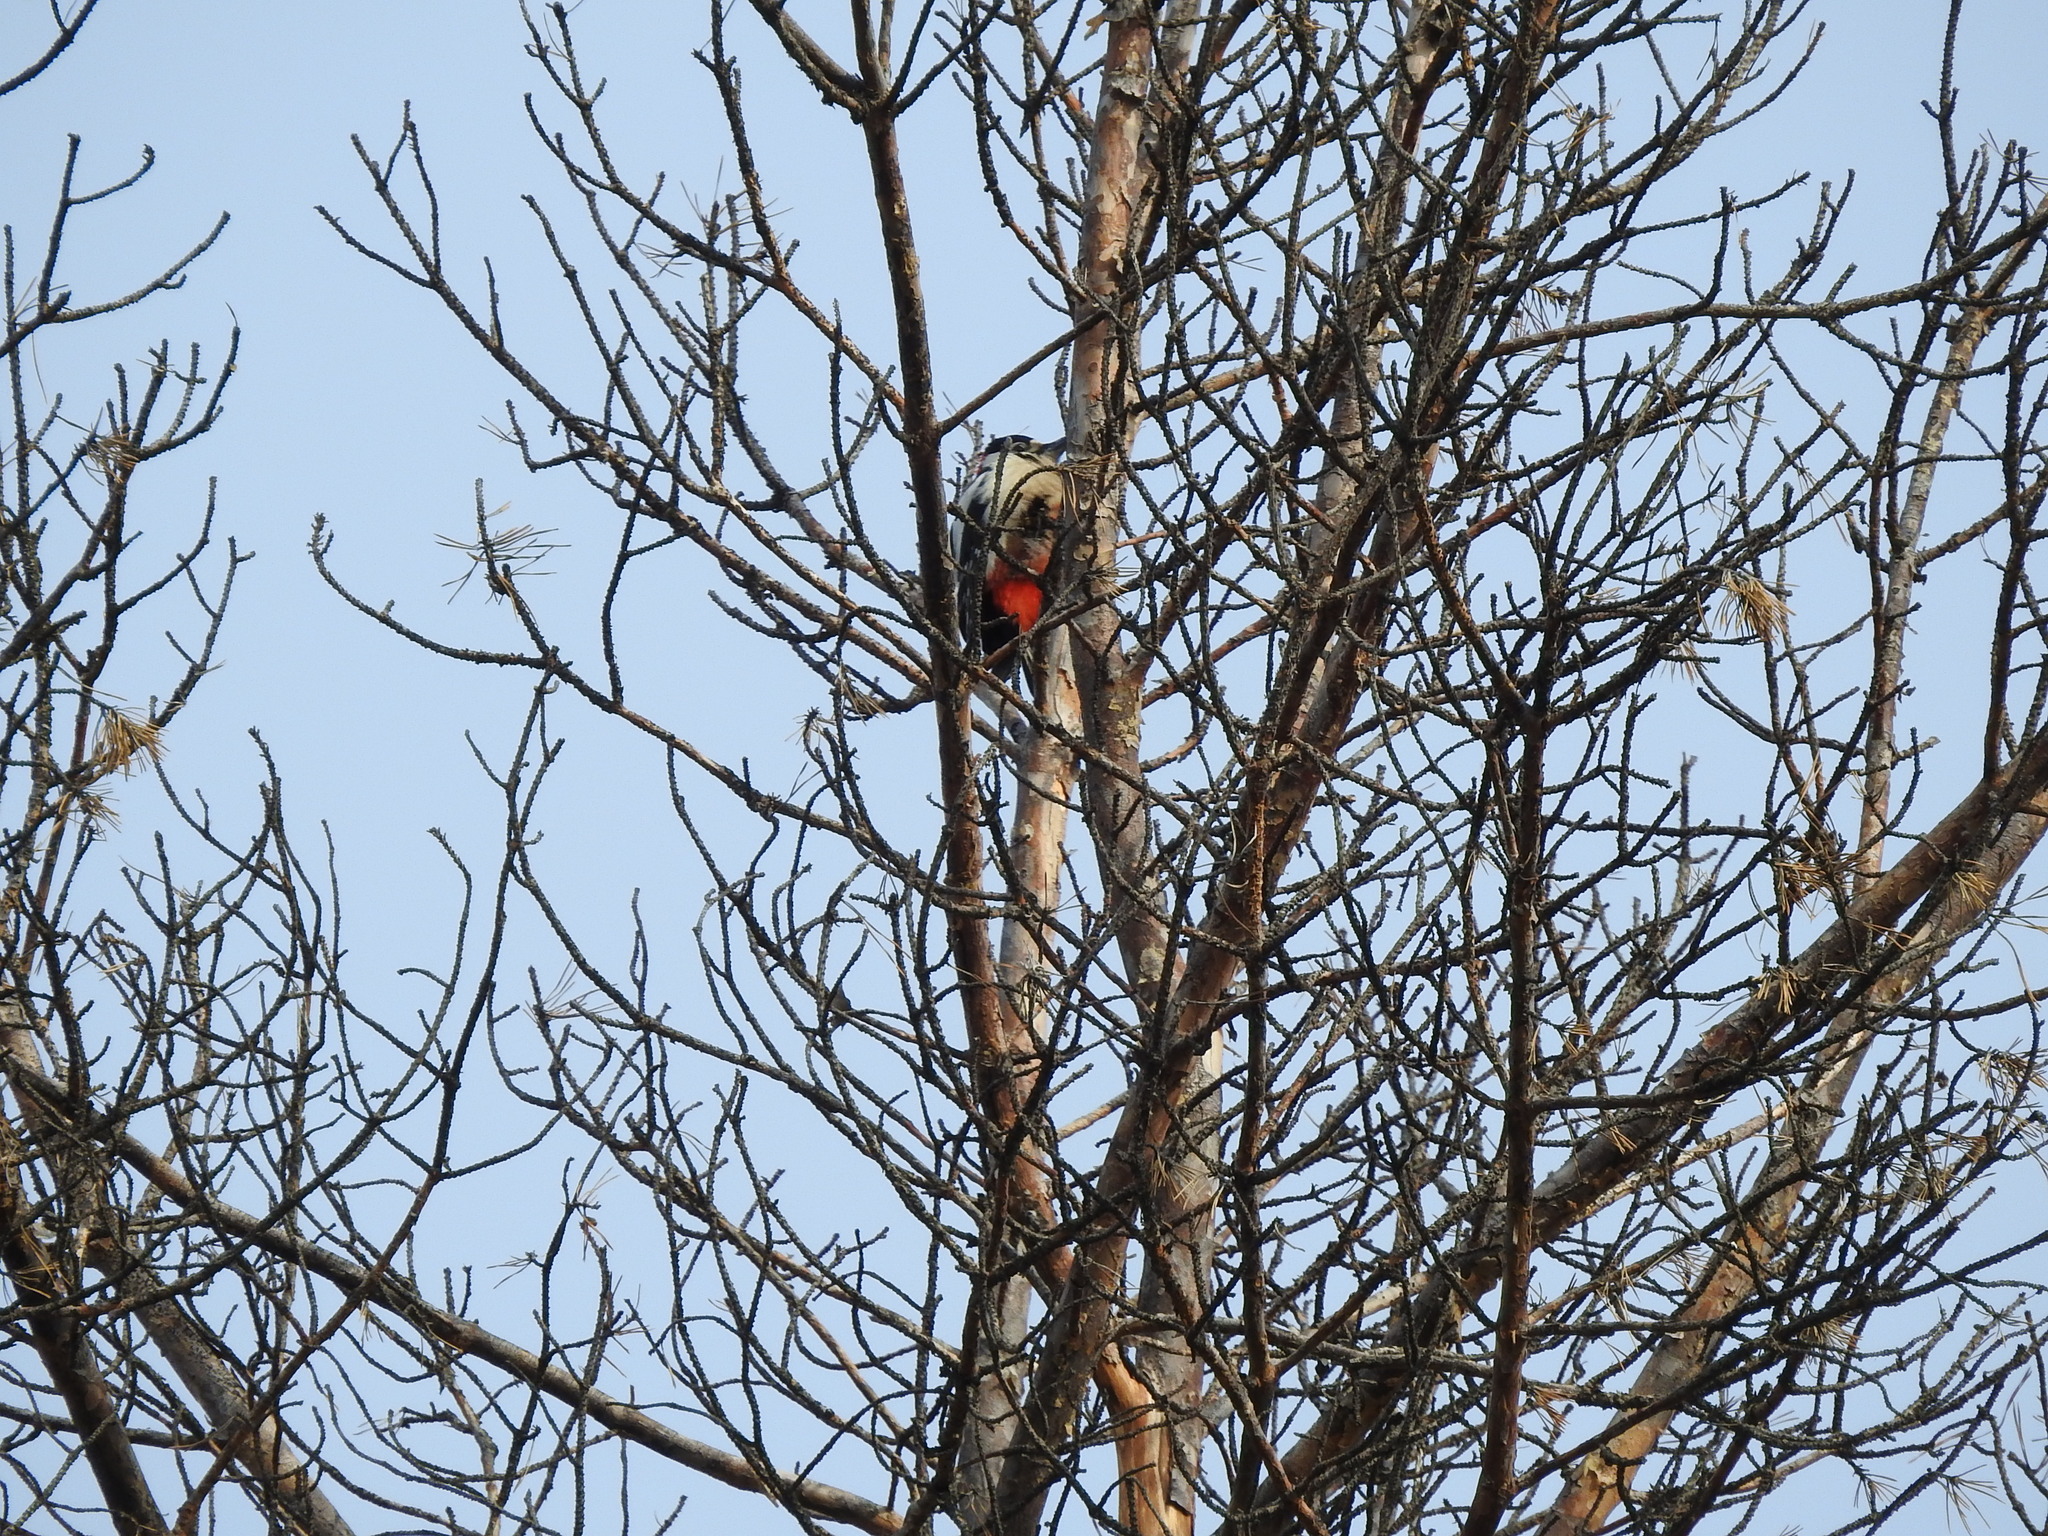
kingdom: Animalia
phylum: Chordata
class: Aves
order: Piciformes
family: Picidae
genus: Dendrocopos
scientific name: Dendrocopos major
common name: Great spotted woodpecker
